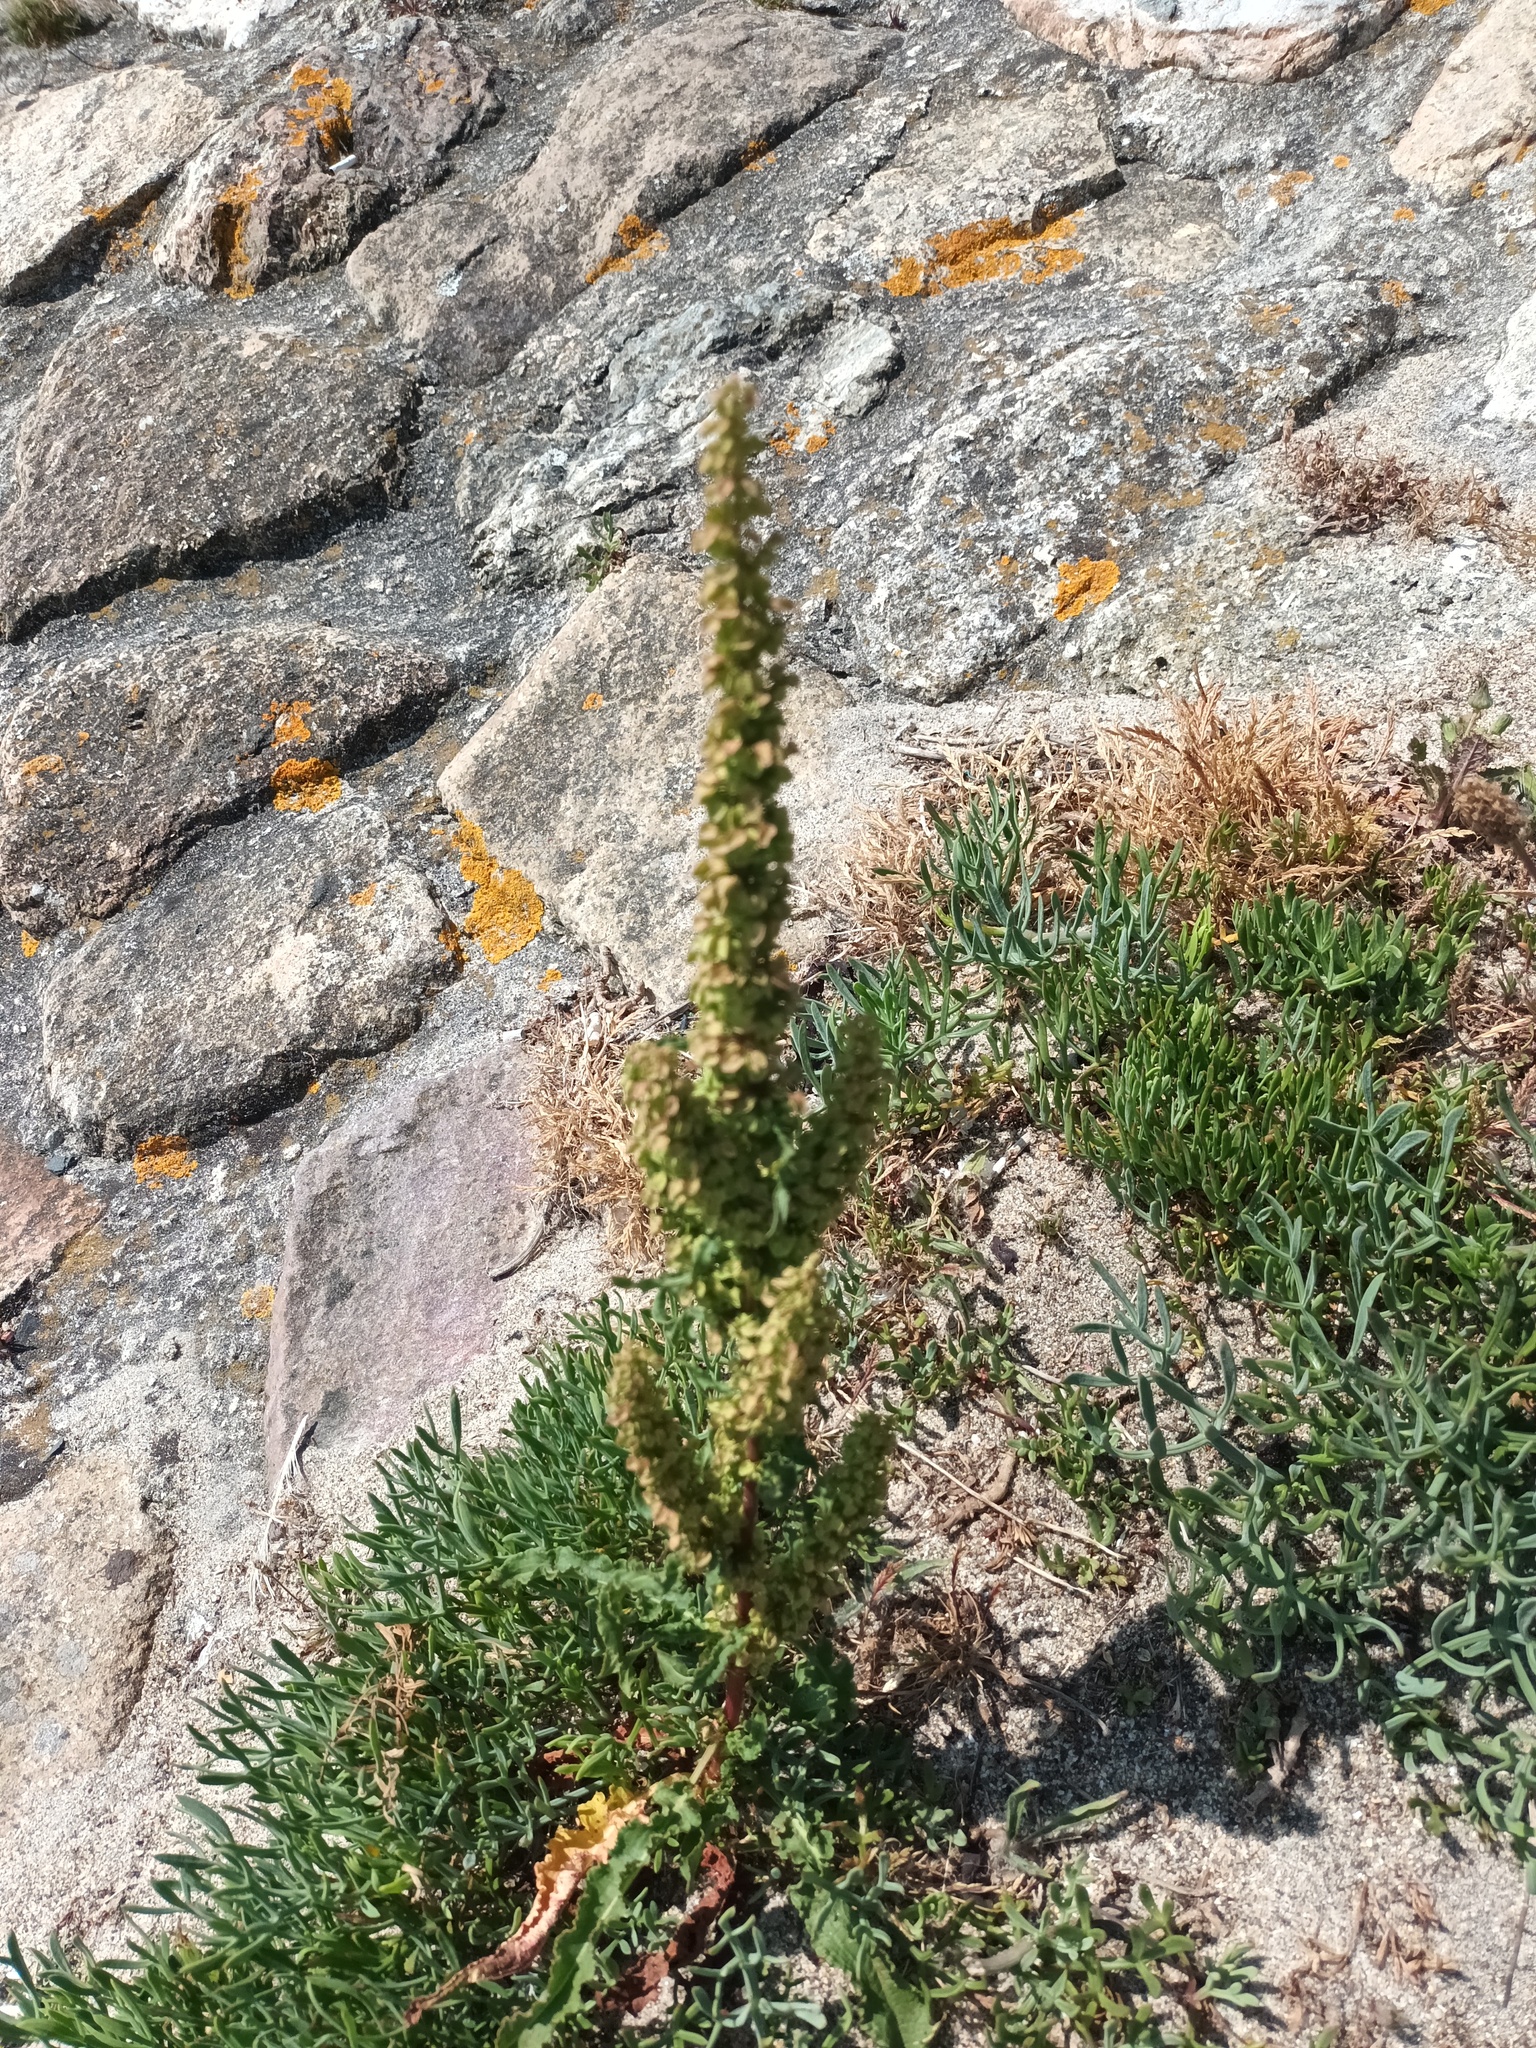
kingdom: Plantae
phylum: Tracheophyta
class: Magnoliopsida
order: Caryophyllales
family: Polygonaceae
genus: Rumex
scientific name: Rumex crispus
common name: Curled dock
